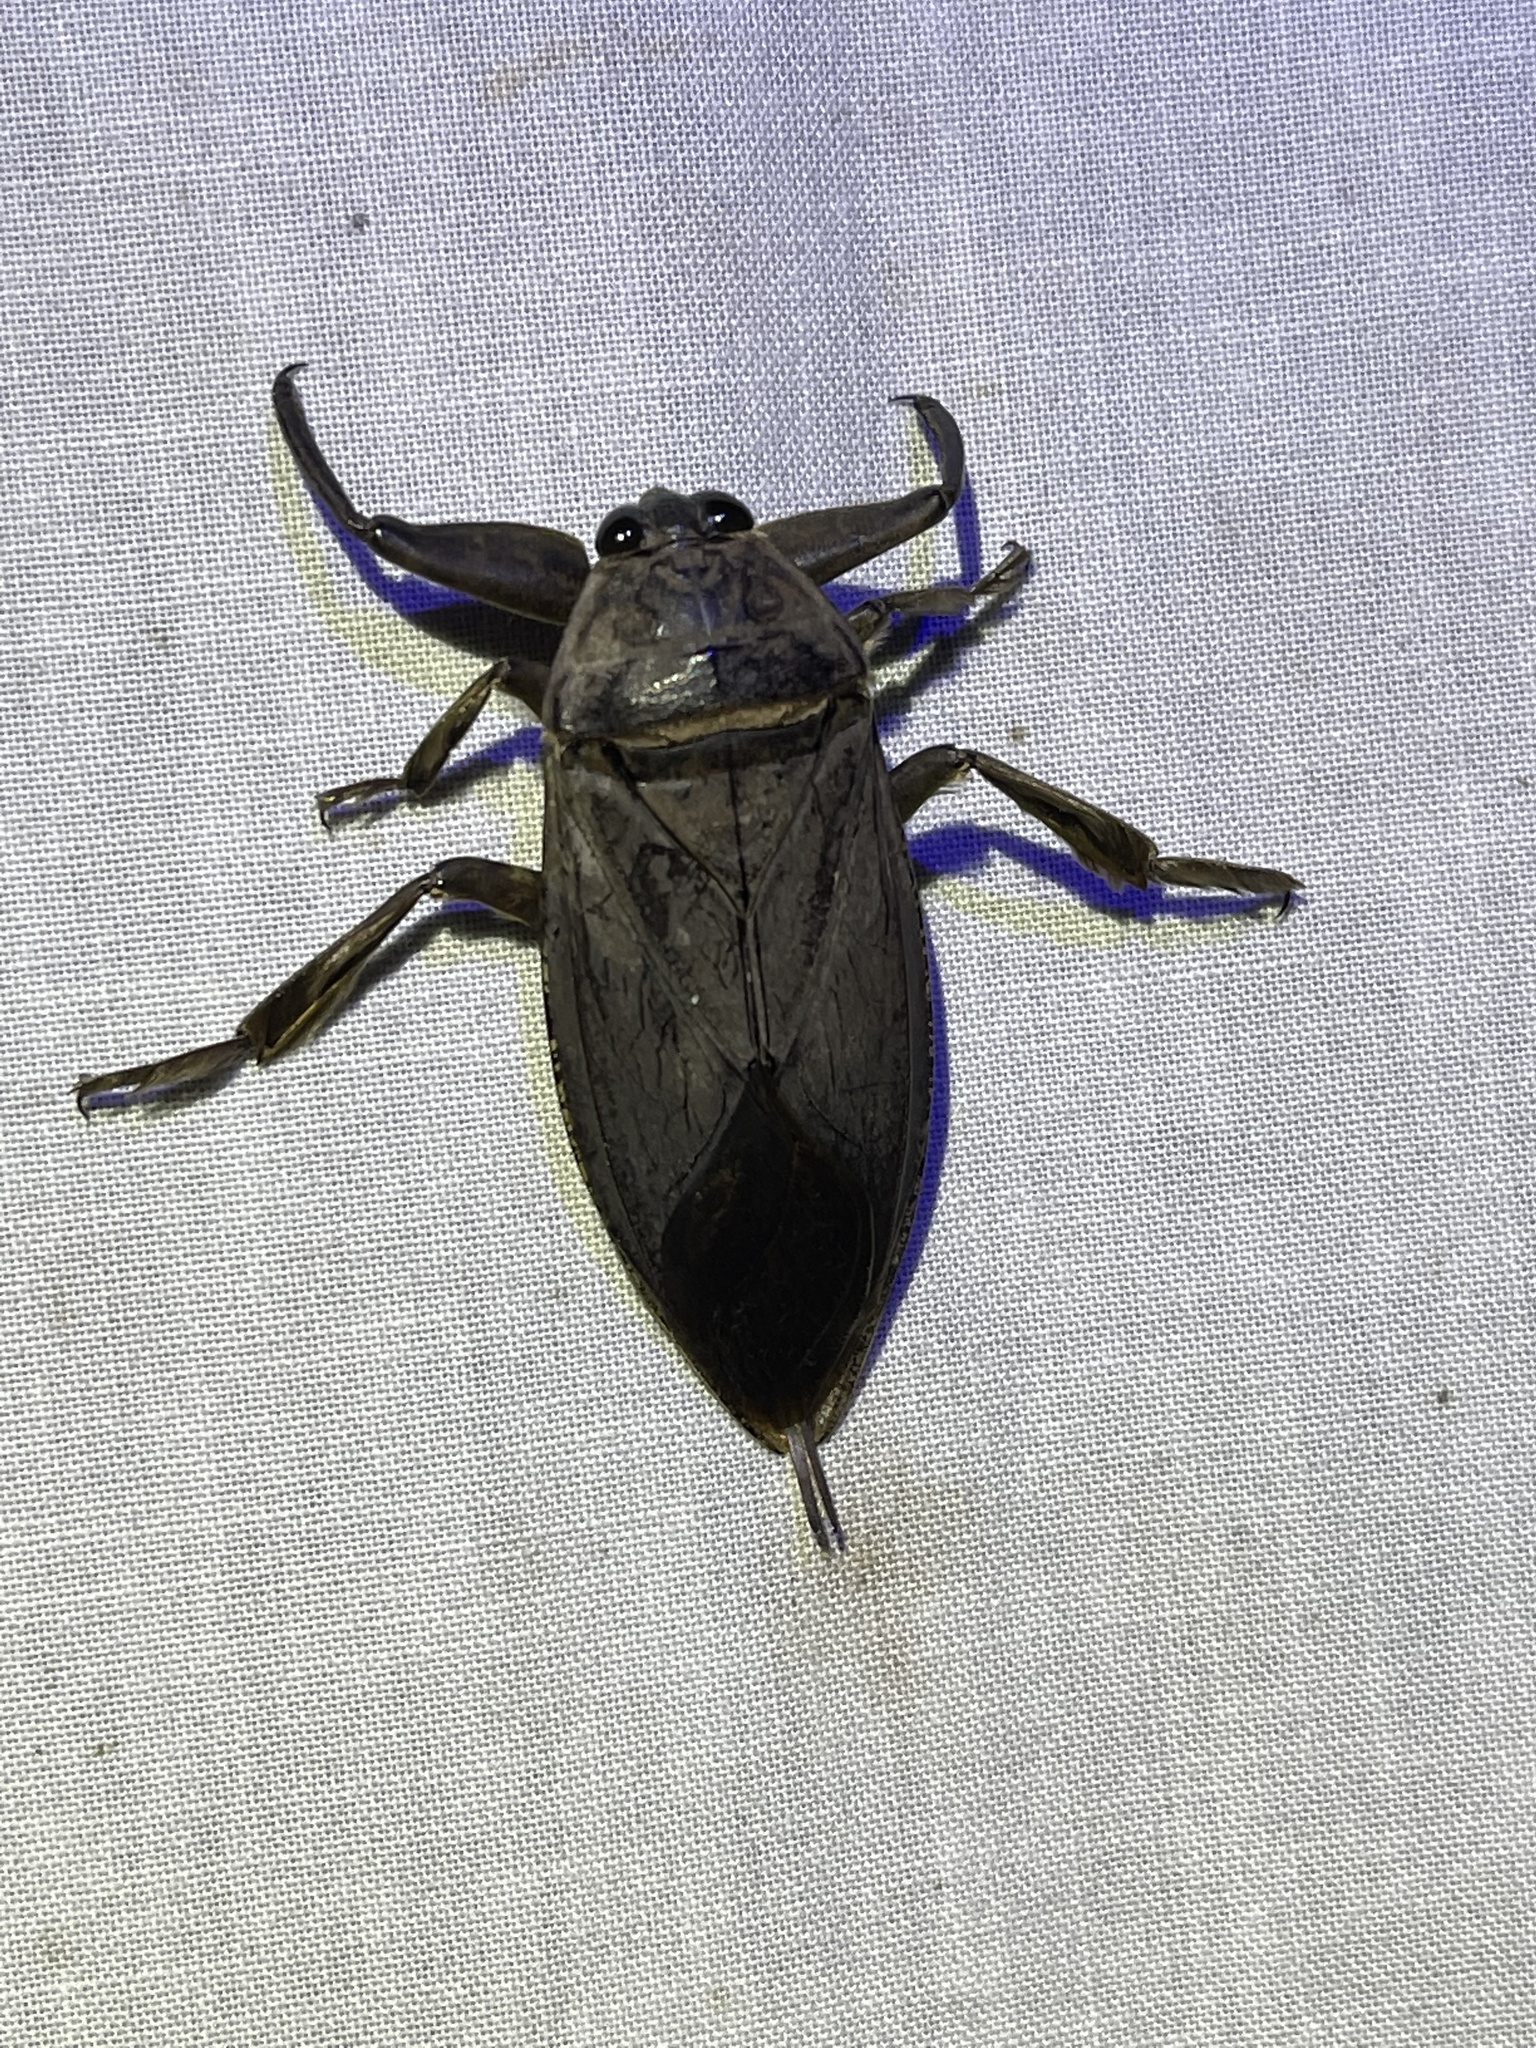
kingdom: Animalia
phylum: Arthropoda
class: Insecta
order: Hemiptera
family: Belostomatidae
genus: Lethocerus
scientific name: Lethocerus americanus
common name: Giant water bug
